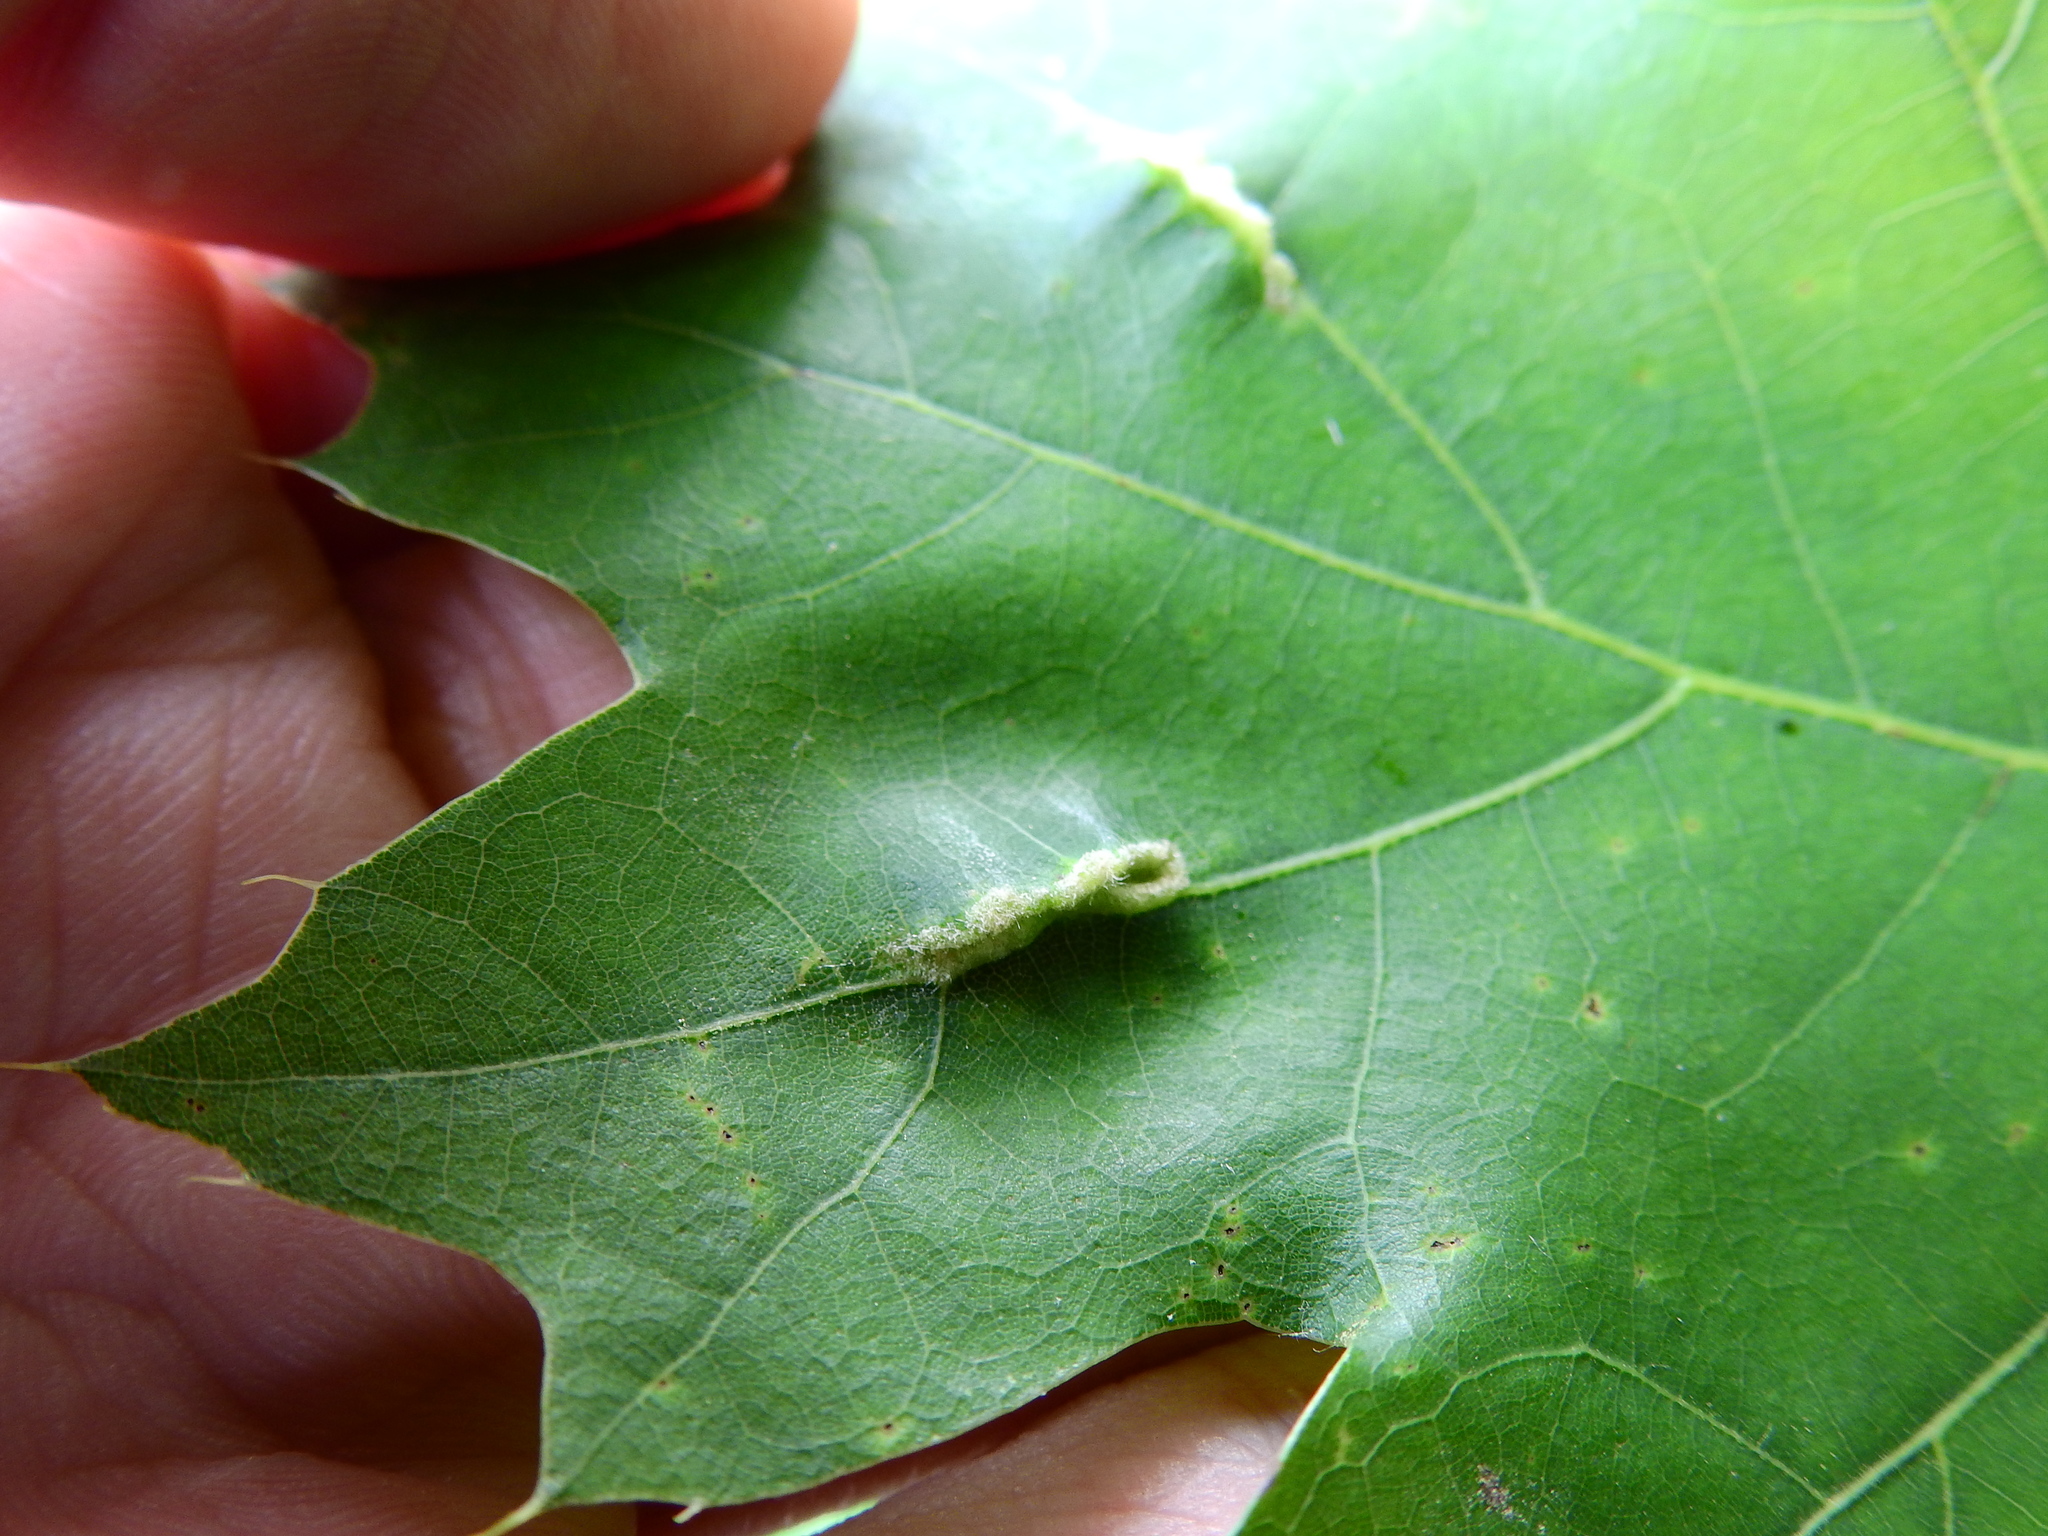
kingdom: Animalia
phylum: Arthropoda
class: Insecta
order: Diptera
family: Cecidomyiidae
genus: Macrodiplosis
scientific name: Macrodiplosis niveipila
